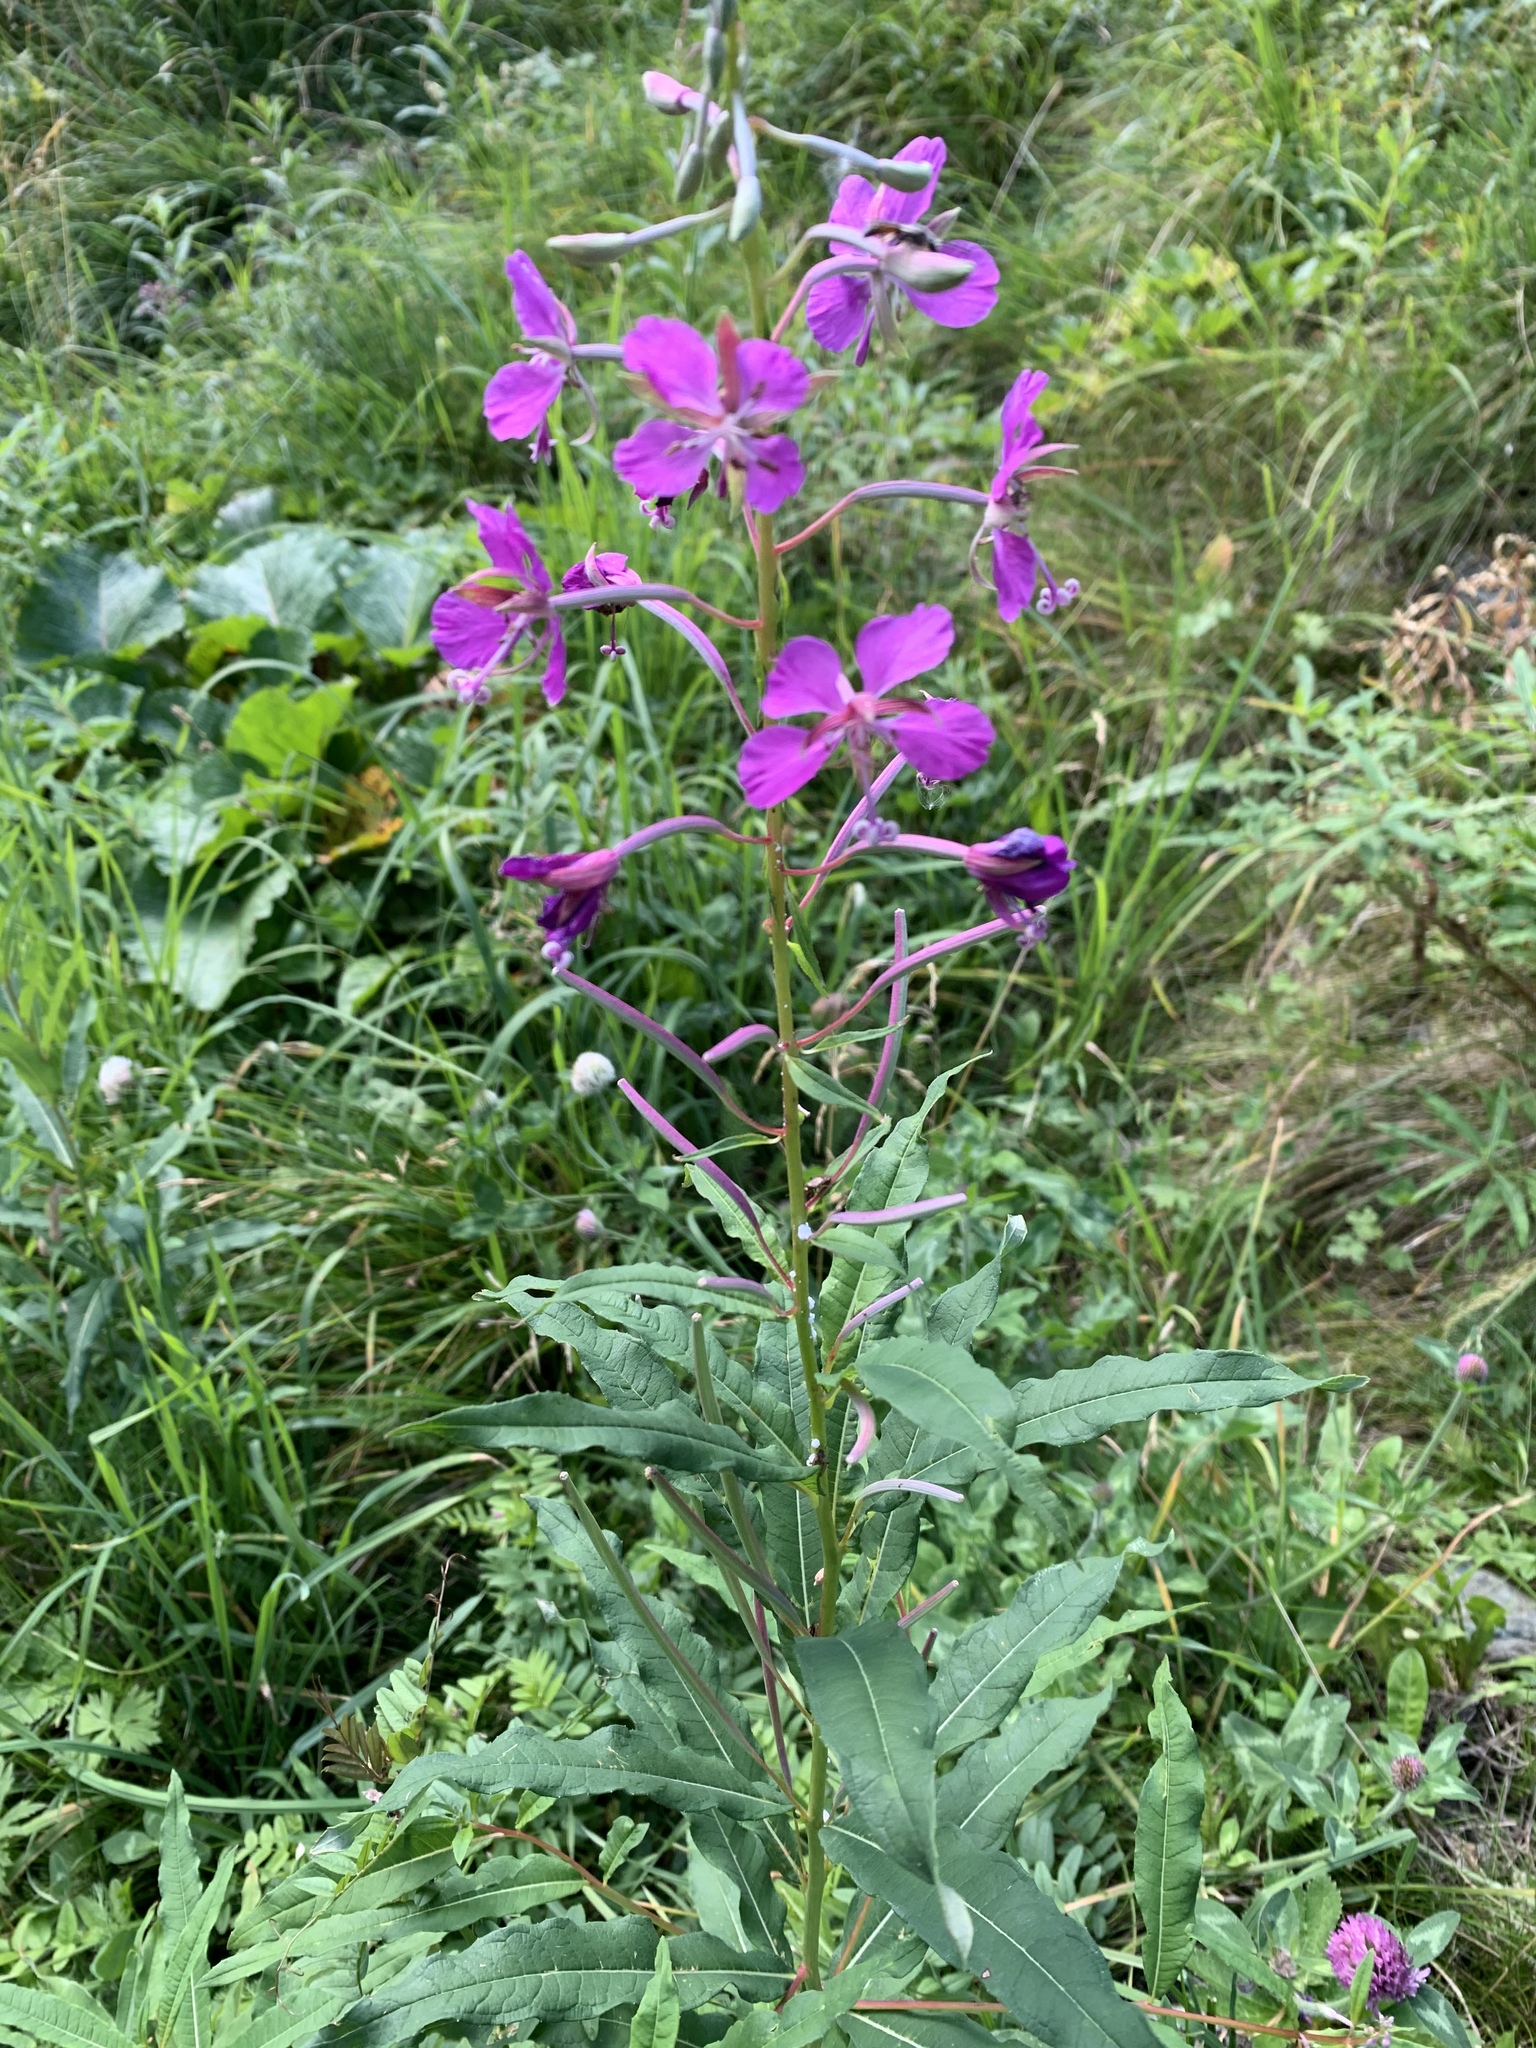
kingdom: Plantae
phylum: Tracheophyta
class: Magnoliopsida
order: Myrtales
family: Onagraceae
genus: Chamaenerion
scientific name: Chamaenerion angustifolium
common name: Fireweed
